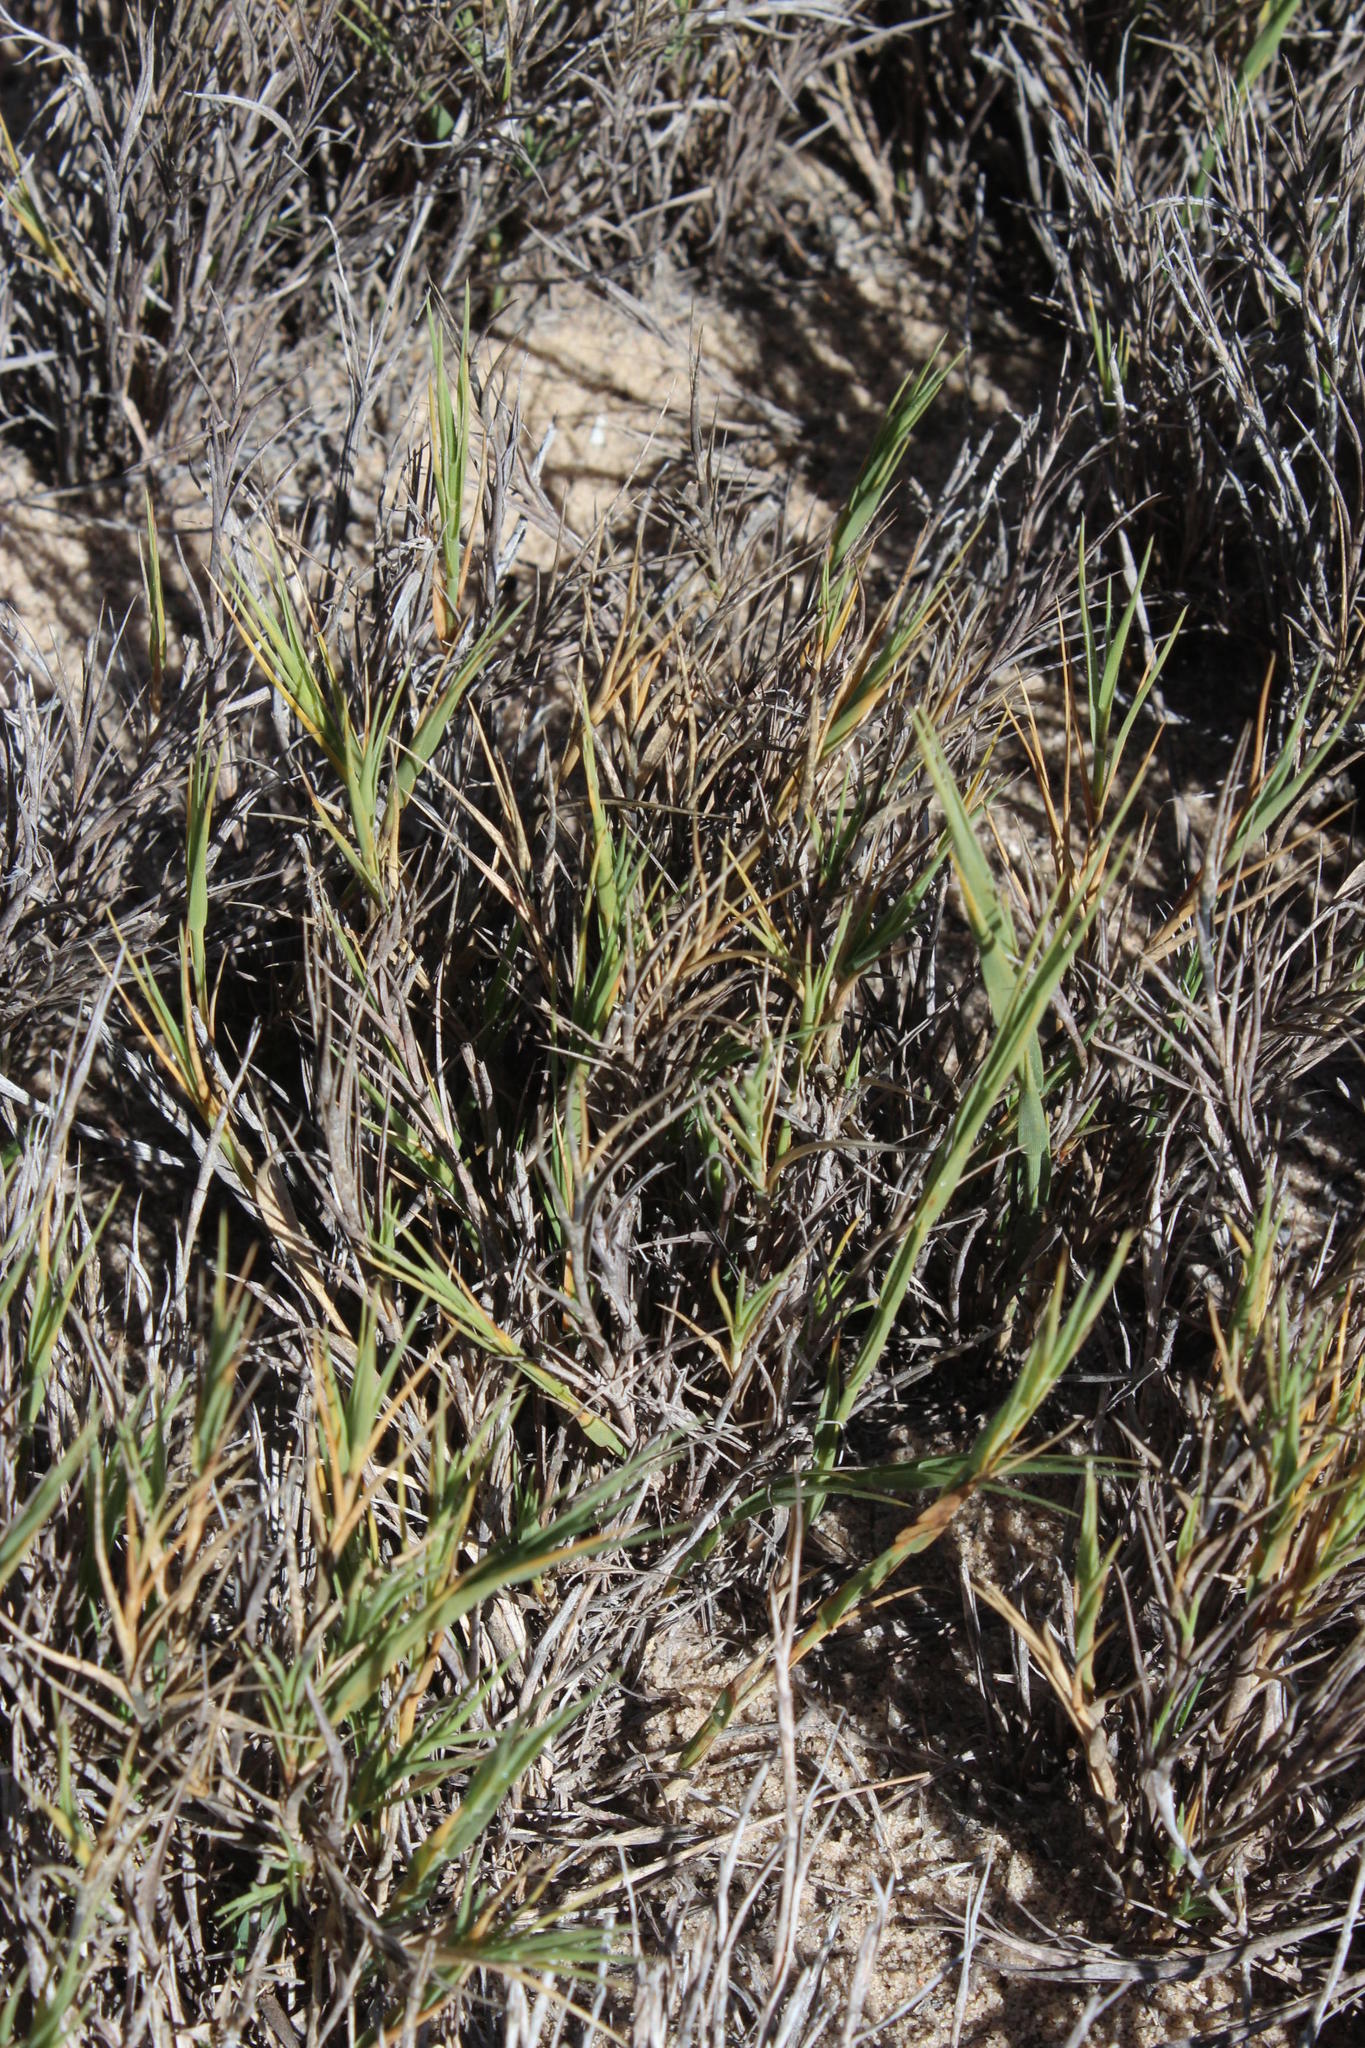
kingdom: Plantae
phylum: Tracheophyta
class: Liliopsida
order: Poales
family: Poaceae
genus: Sporobolus
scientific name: Sporobolus virginicus
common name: Beach dropseed
